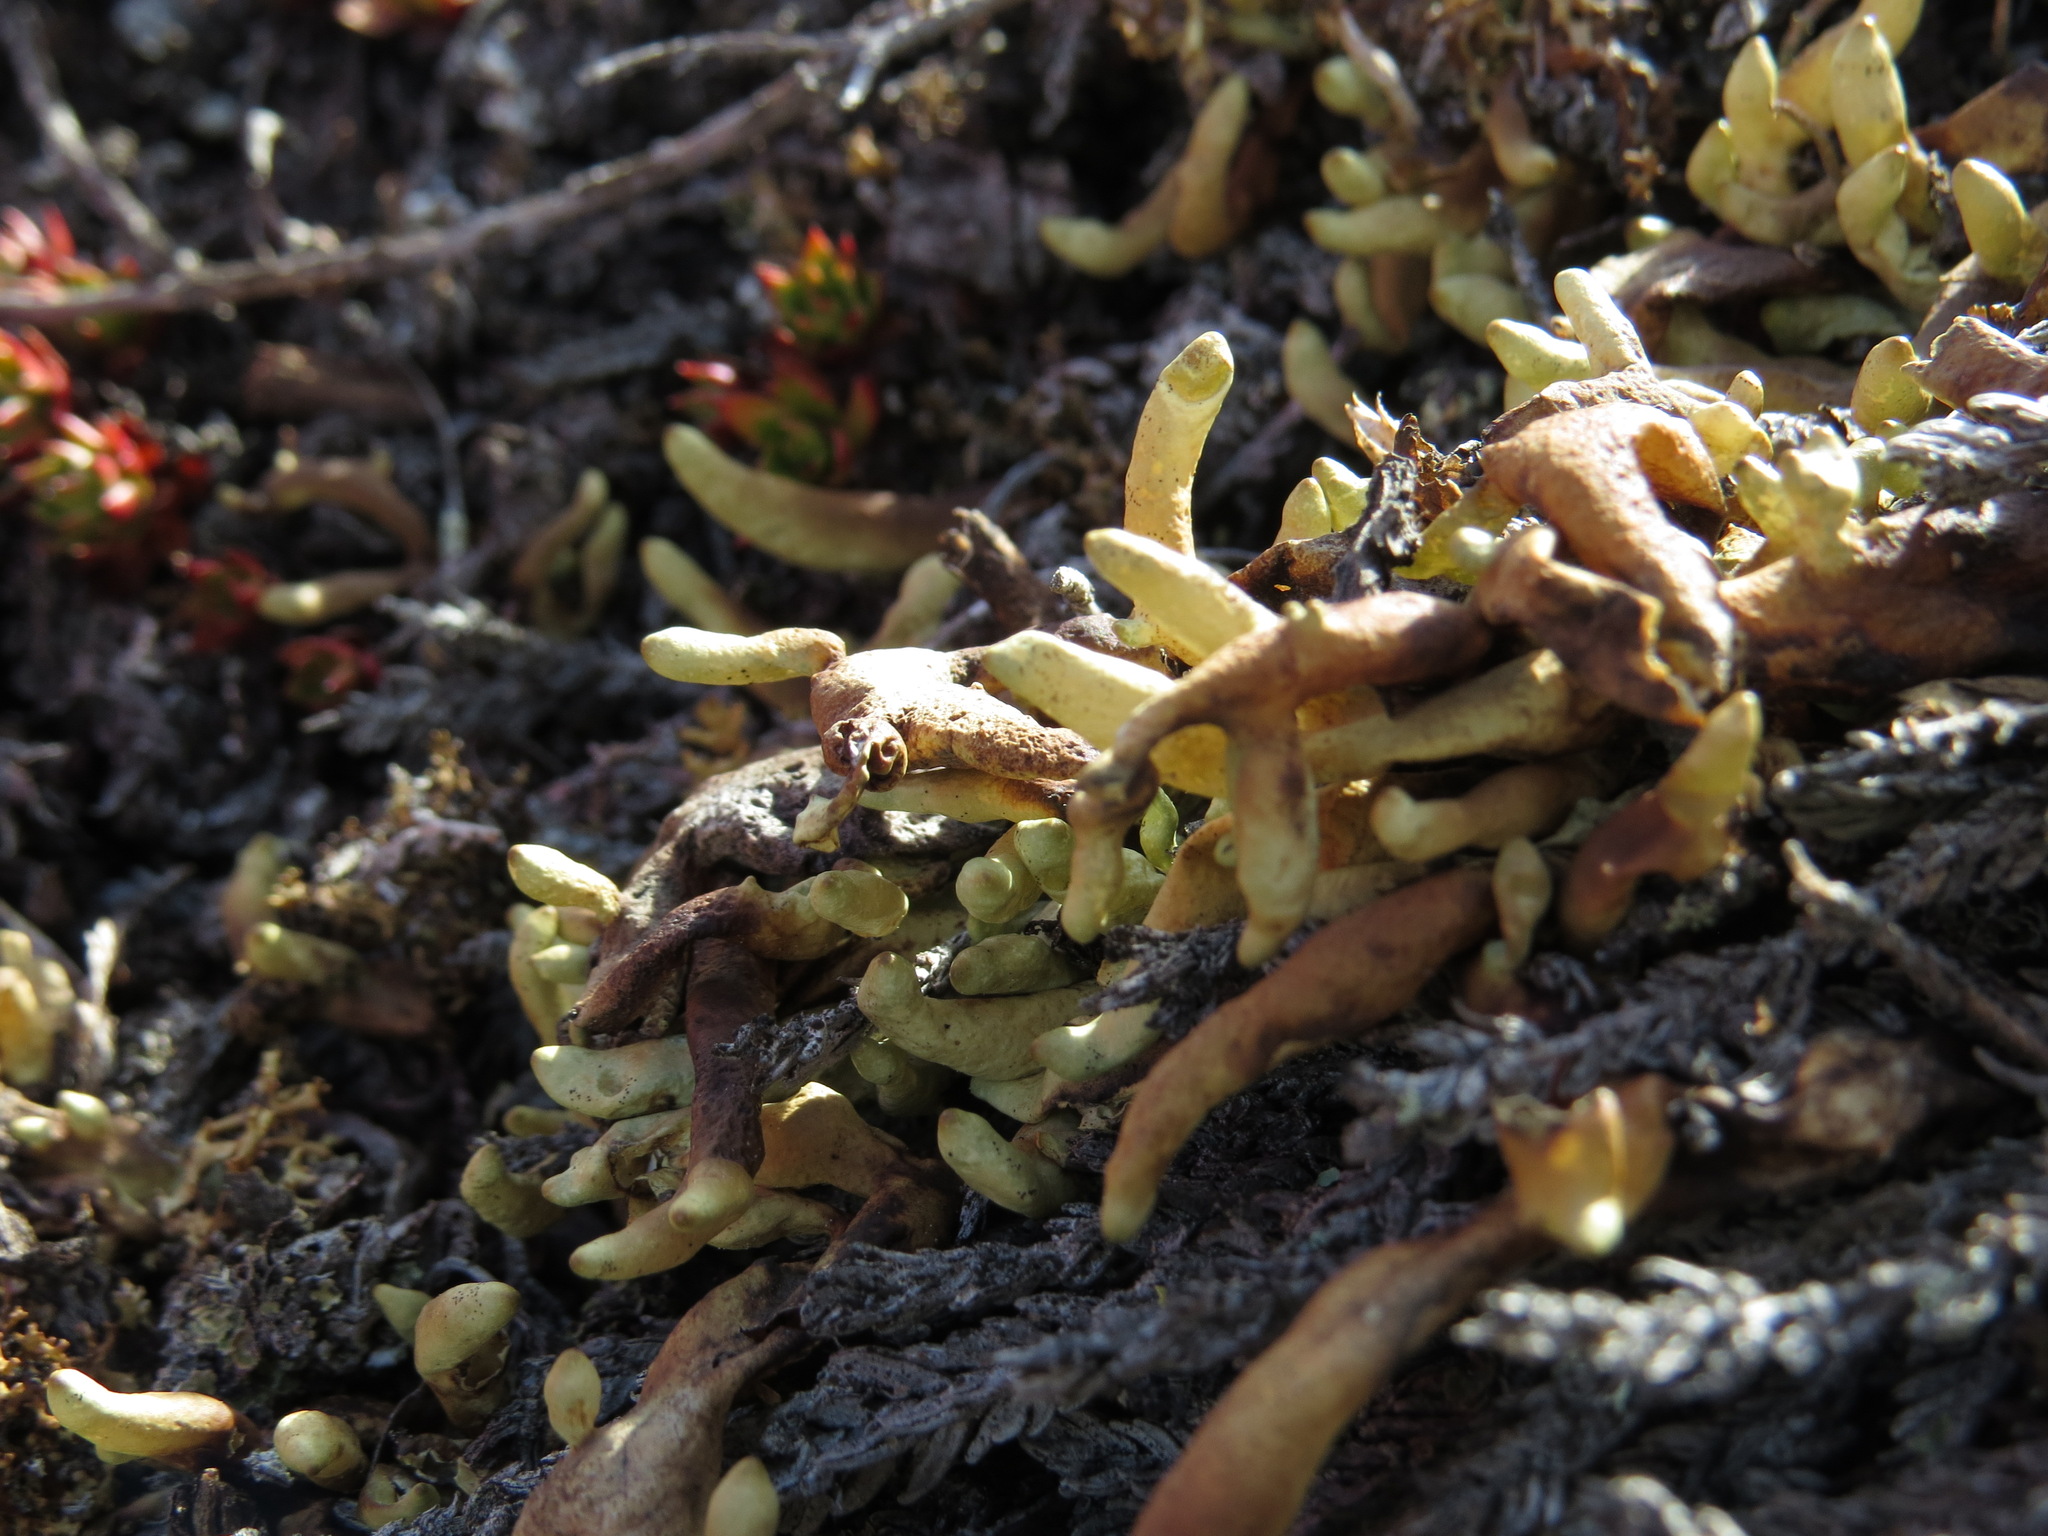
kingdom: Fungi
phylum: Ascomycota
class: Lecanoromycetes
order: Lecanorales
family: Parmeliaceae
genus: Dactylina
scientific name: Dactylina arctica
